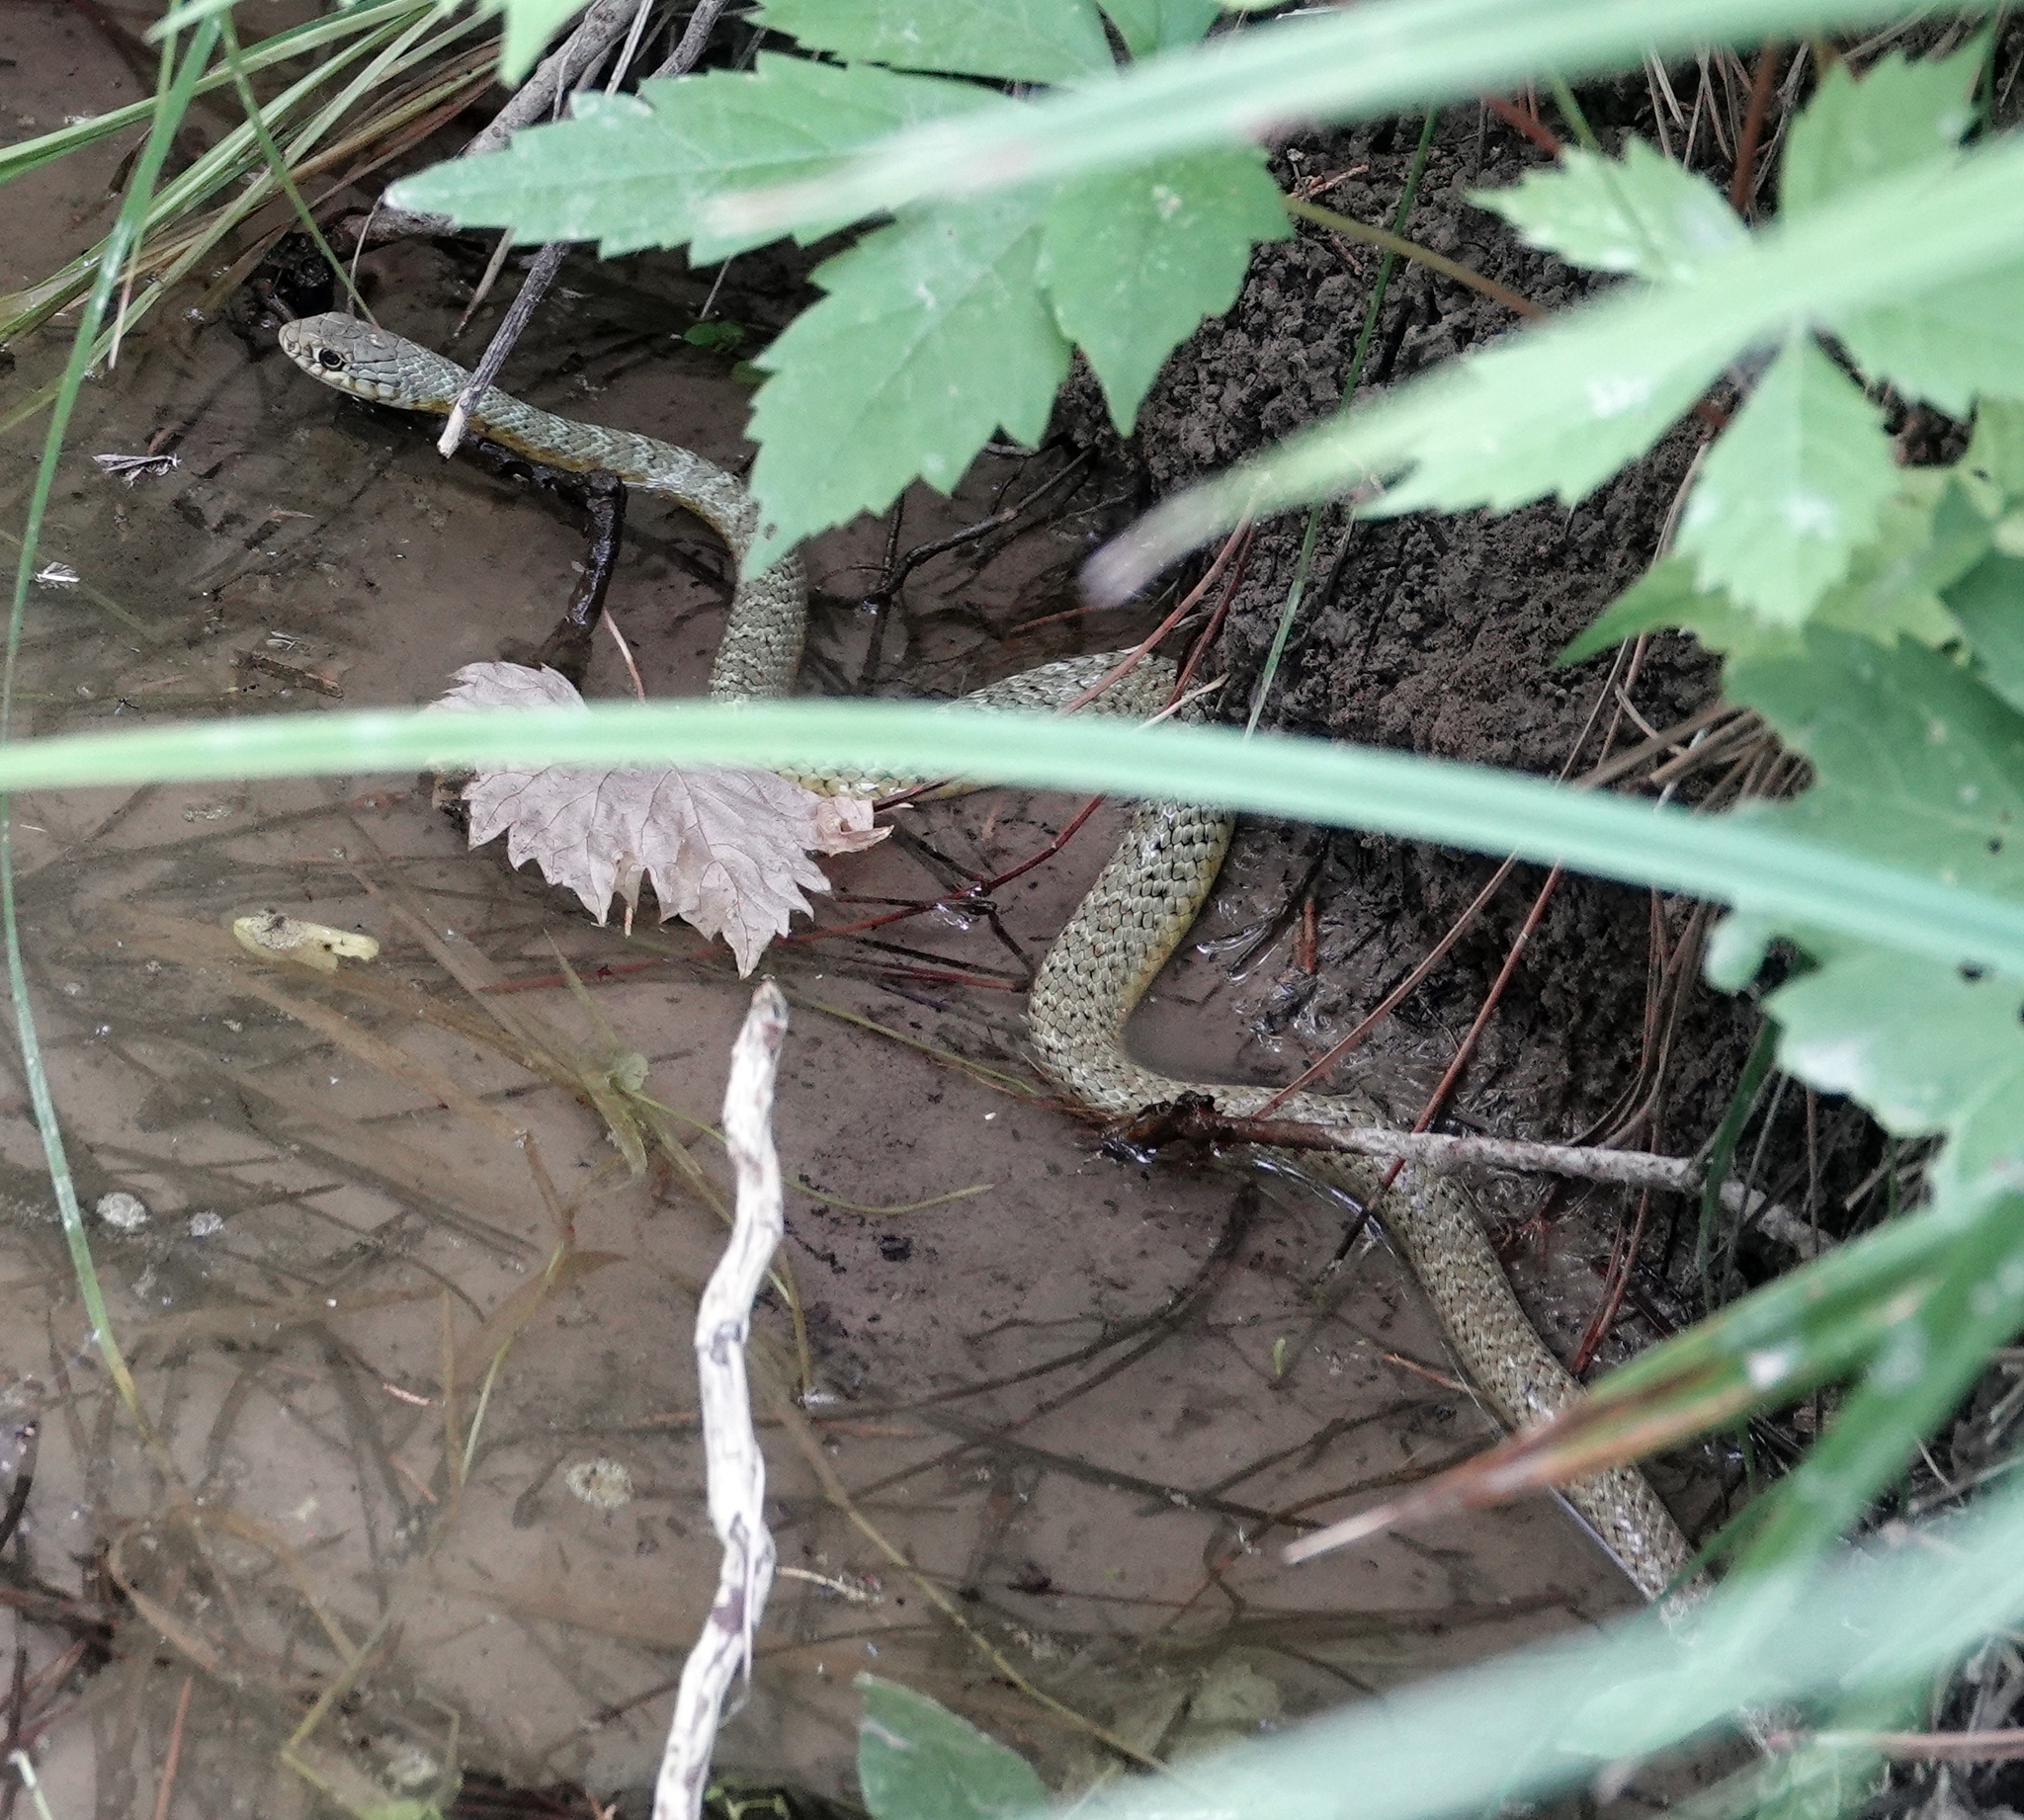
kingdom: Animalia
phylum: Chordata
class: Squamata
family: Colubridae
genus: Coluber
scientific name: Coluber constrictor
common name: Eastern racer
